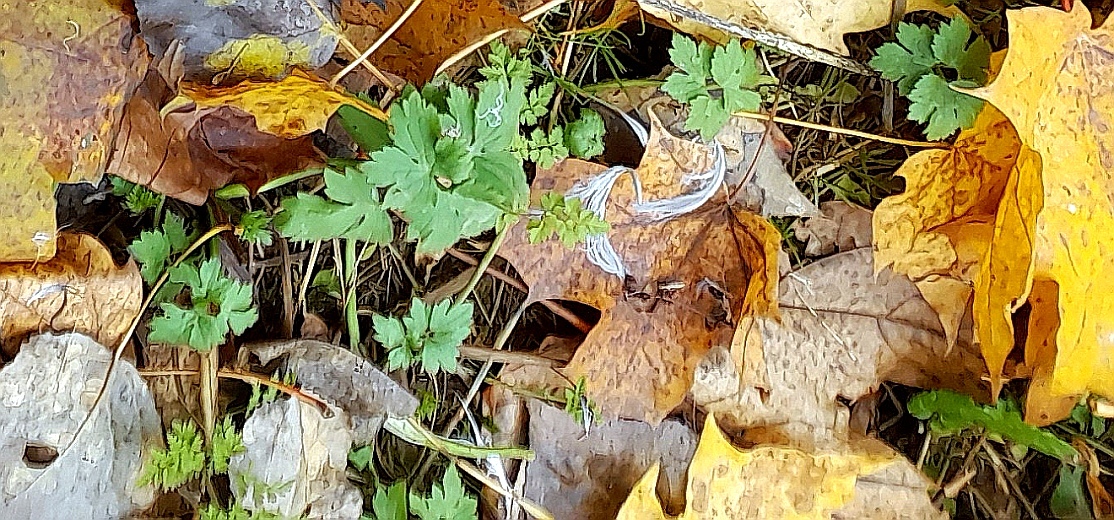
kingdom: Plantae
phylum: Tracheophyta
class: Magnoliopsida
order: Ranunculales
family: Ranunculaceae
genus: Ranunculus
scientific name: Ranunculus repens
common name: Creeping buttercup
